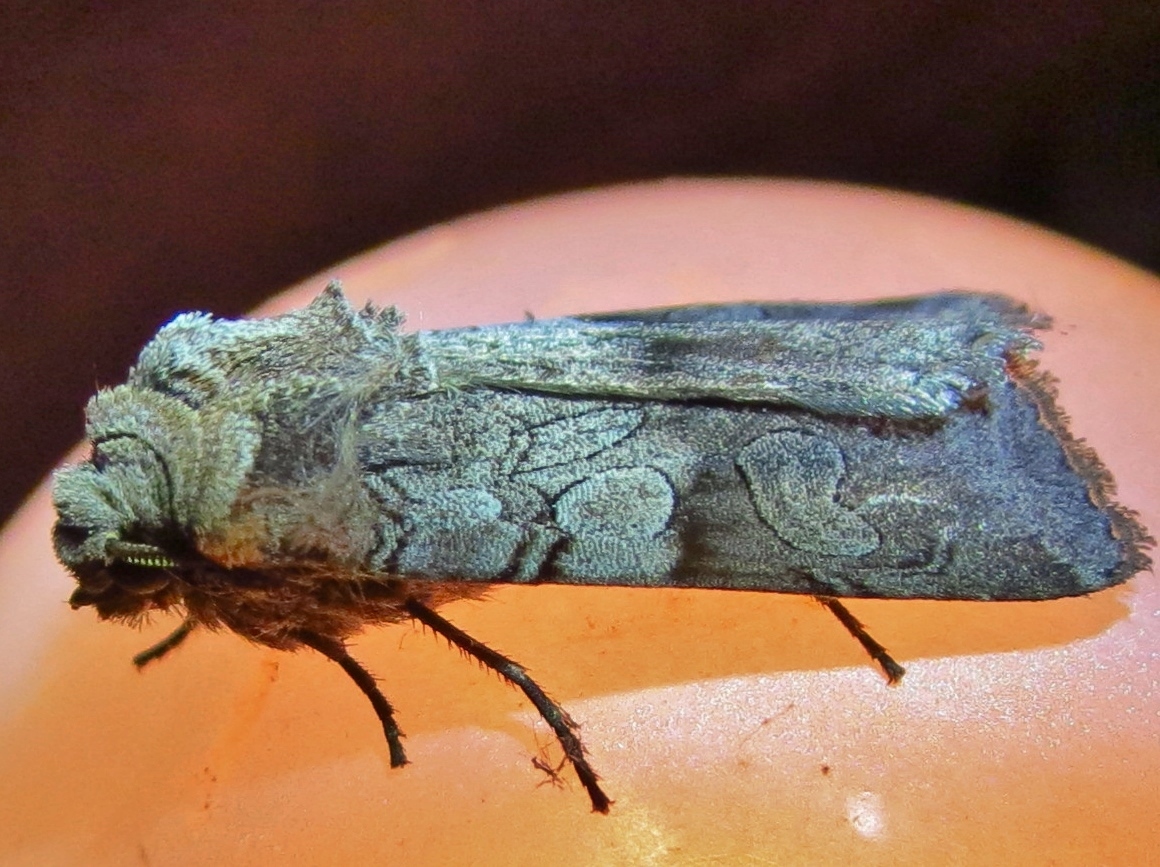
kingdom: Animalia
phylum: Arthropoda
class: Insecta
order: Lepidoptera
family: Noctuidae
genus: Euxoa
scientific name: Euxoa sculptilis
